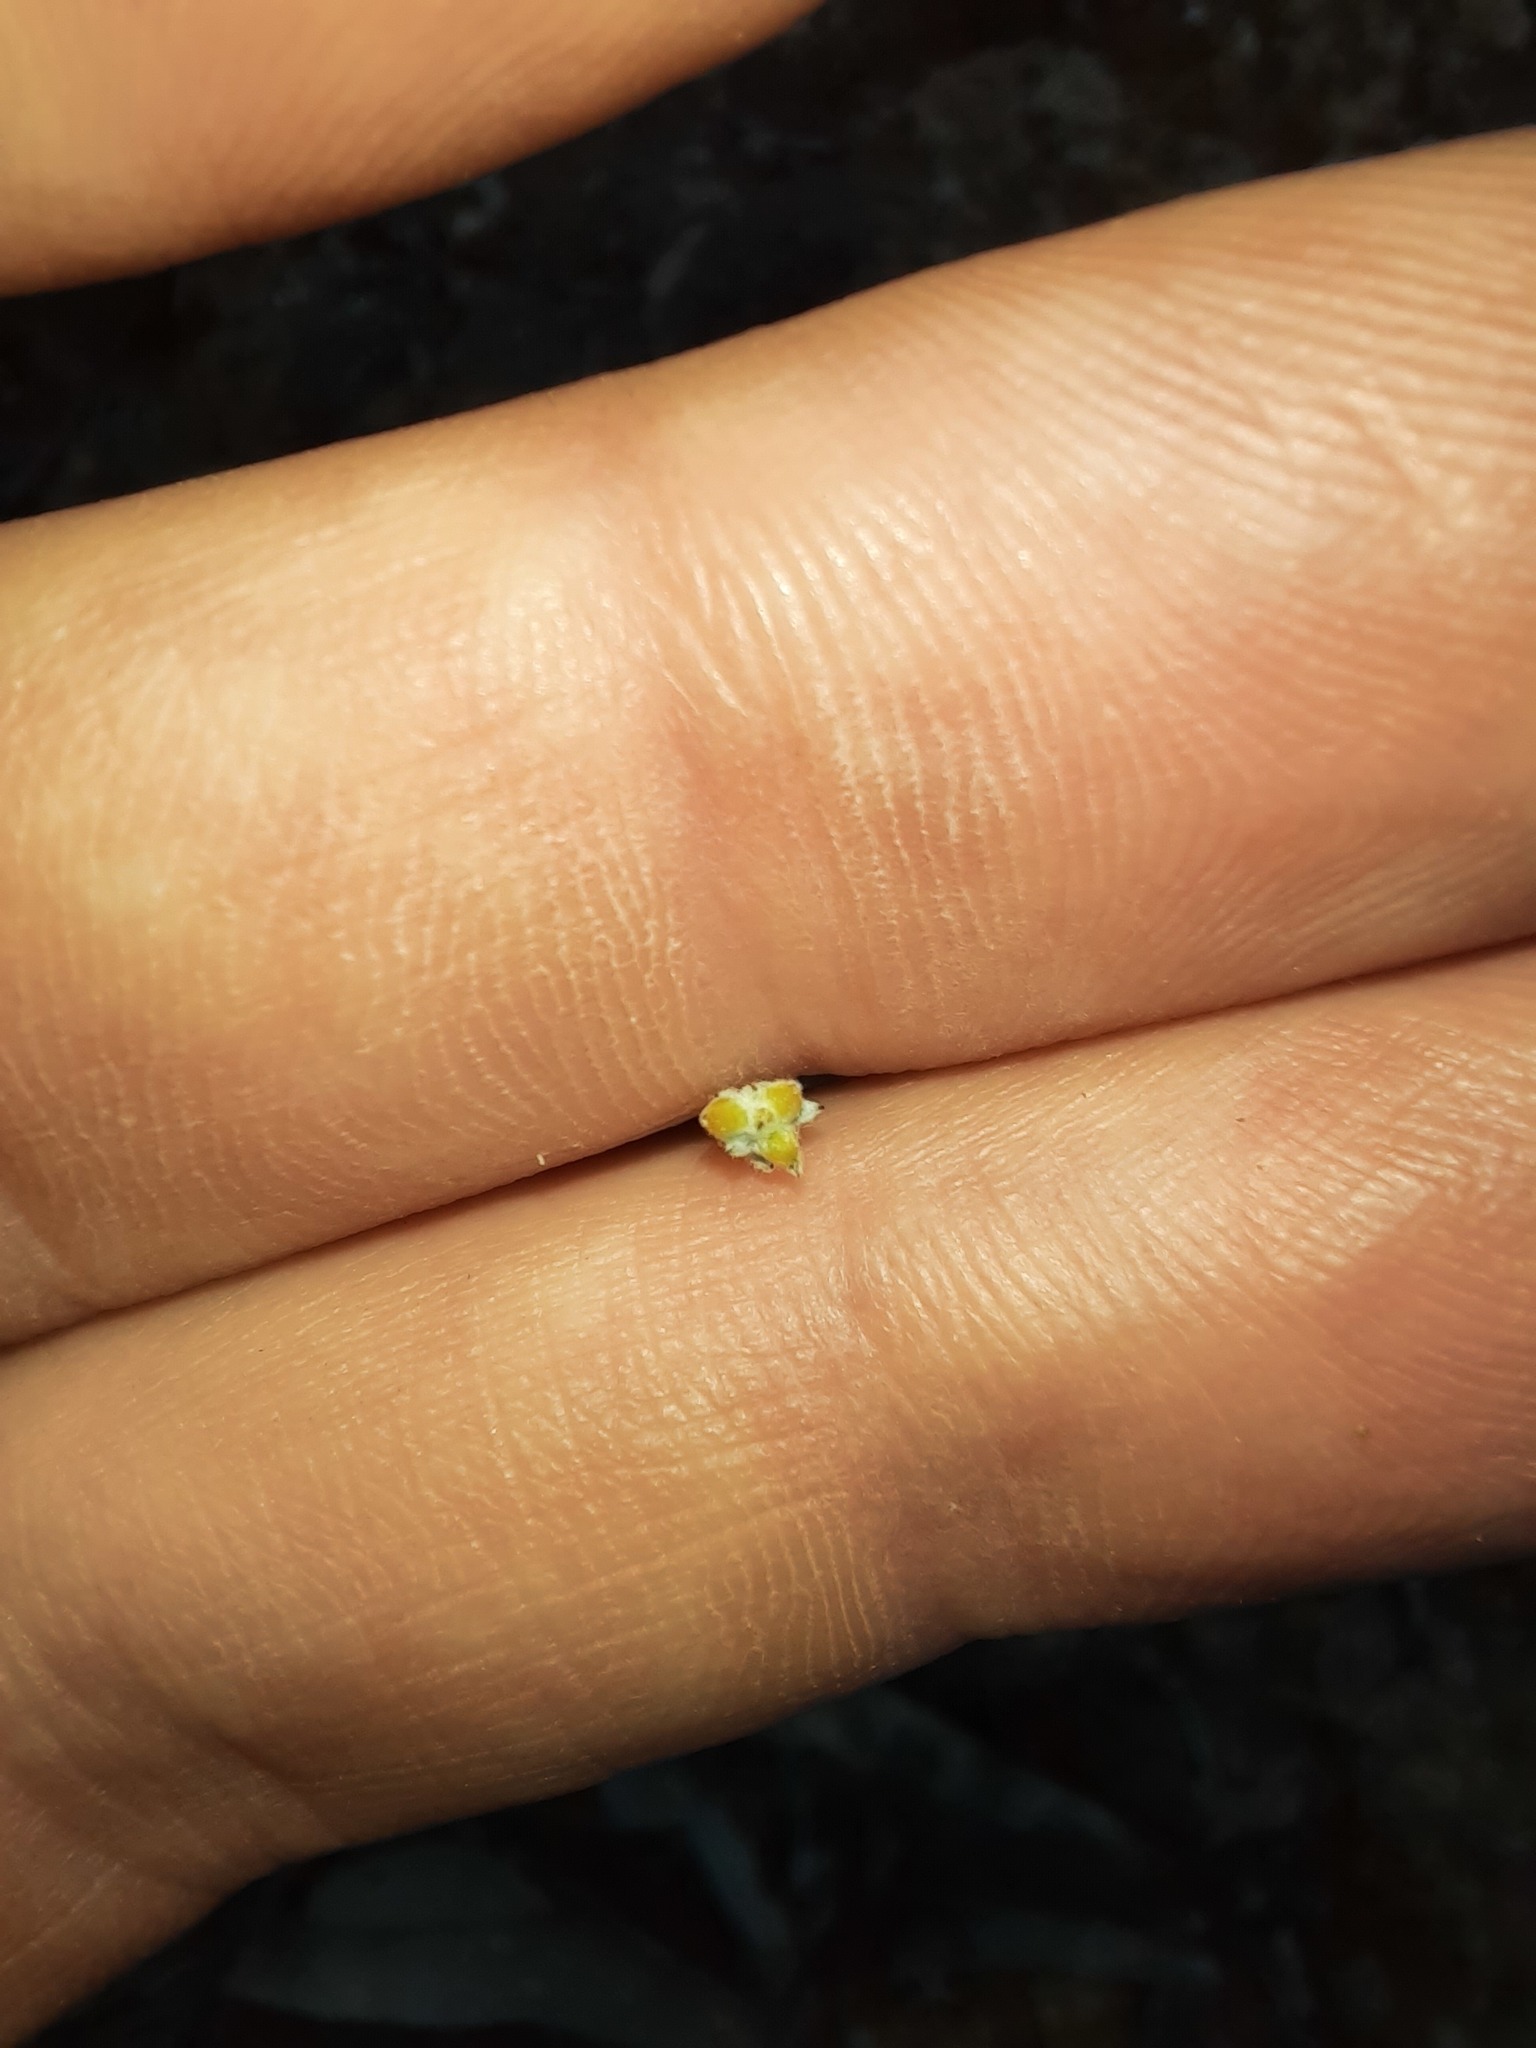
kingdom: Plantae
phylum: Tracheophyta
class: Magnoliopsida
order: Asterales
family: Asteraceae
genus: Chrysocephalum
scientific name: Chrysocephalum semipapposum
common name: Clustered everlasting
